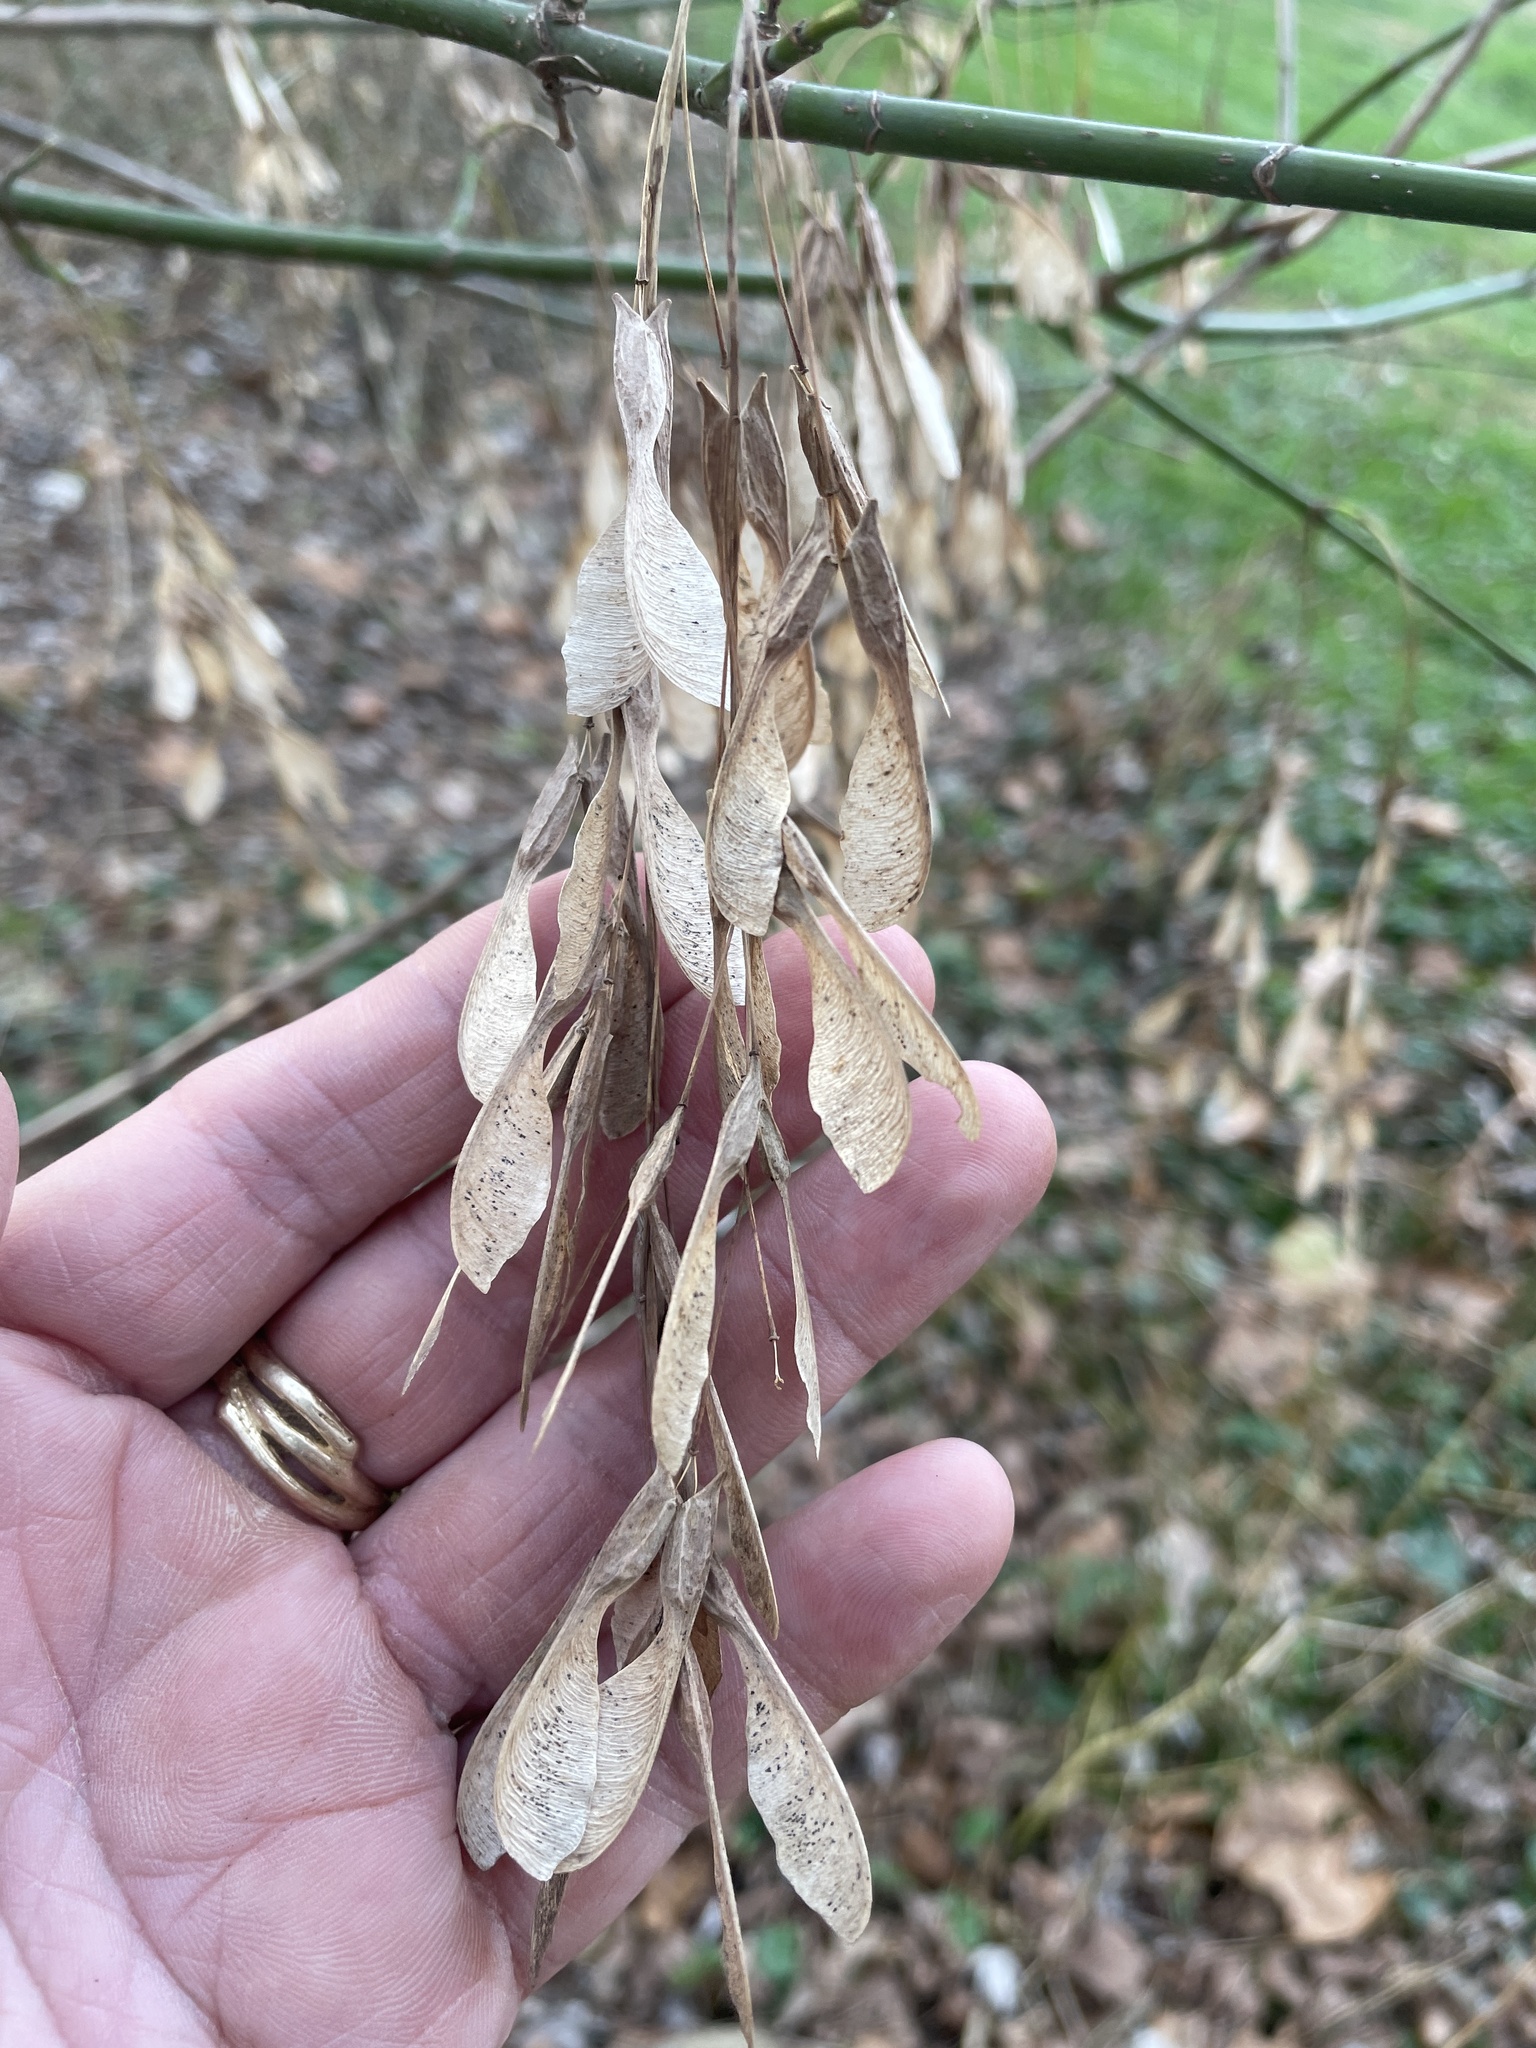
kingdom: Plantae
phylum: Tracheophyta
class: Magnoliopsida
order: Sapindales
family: Sapindaceae
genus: Acer
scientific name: Acer negundo
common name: Ashleaf maple
